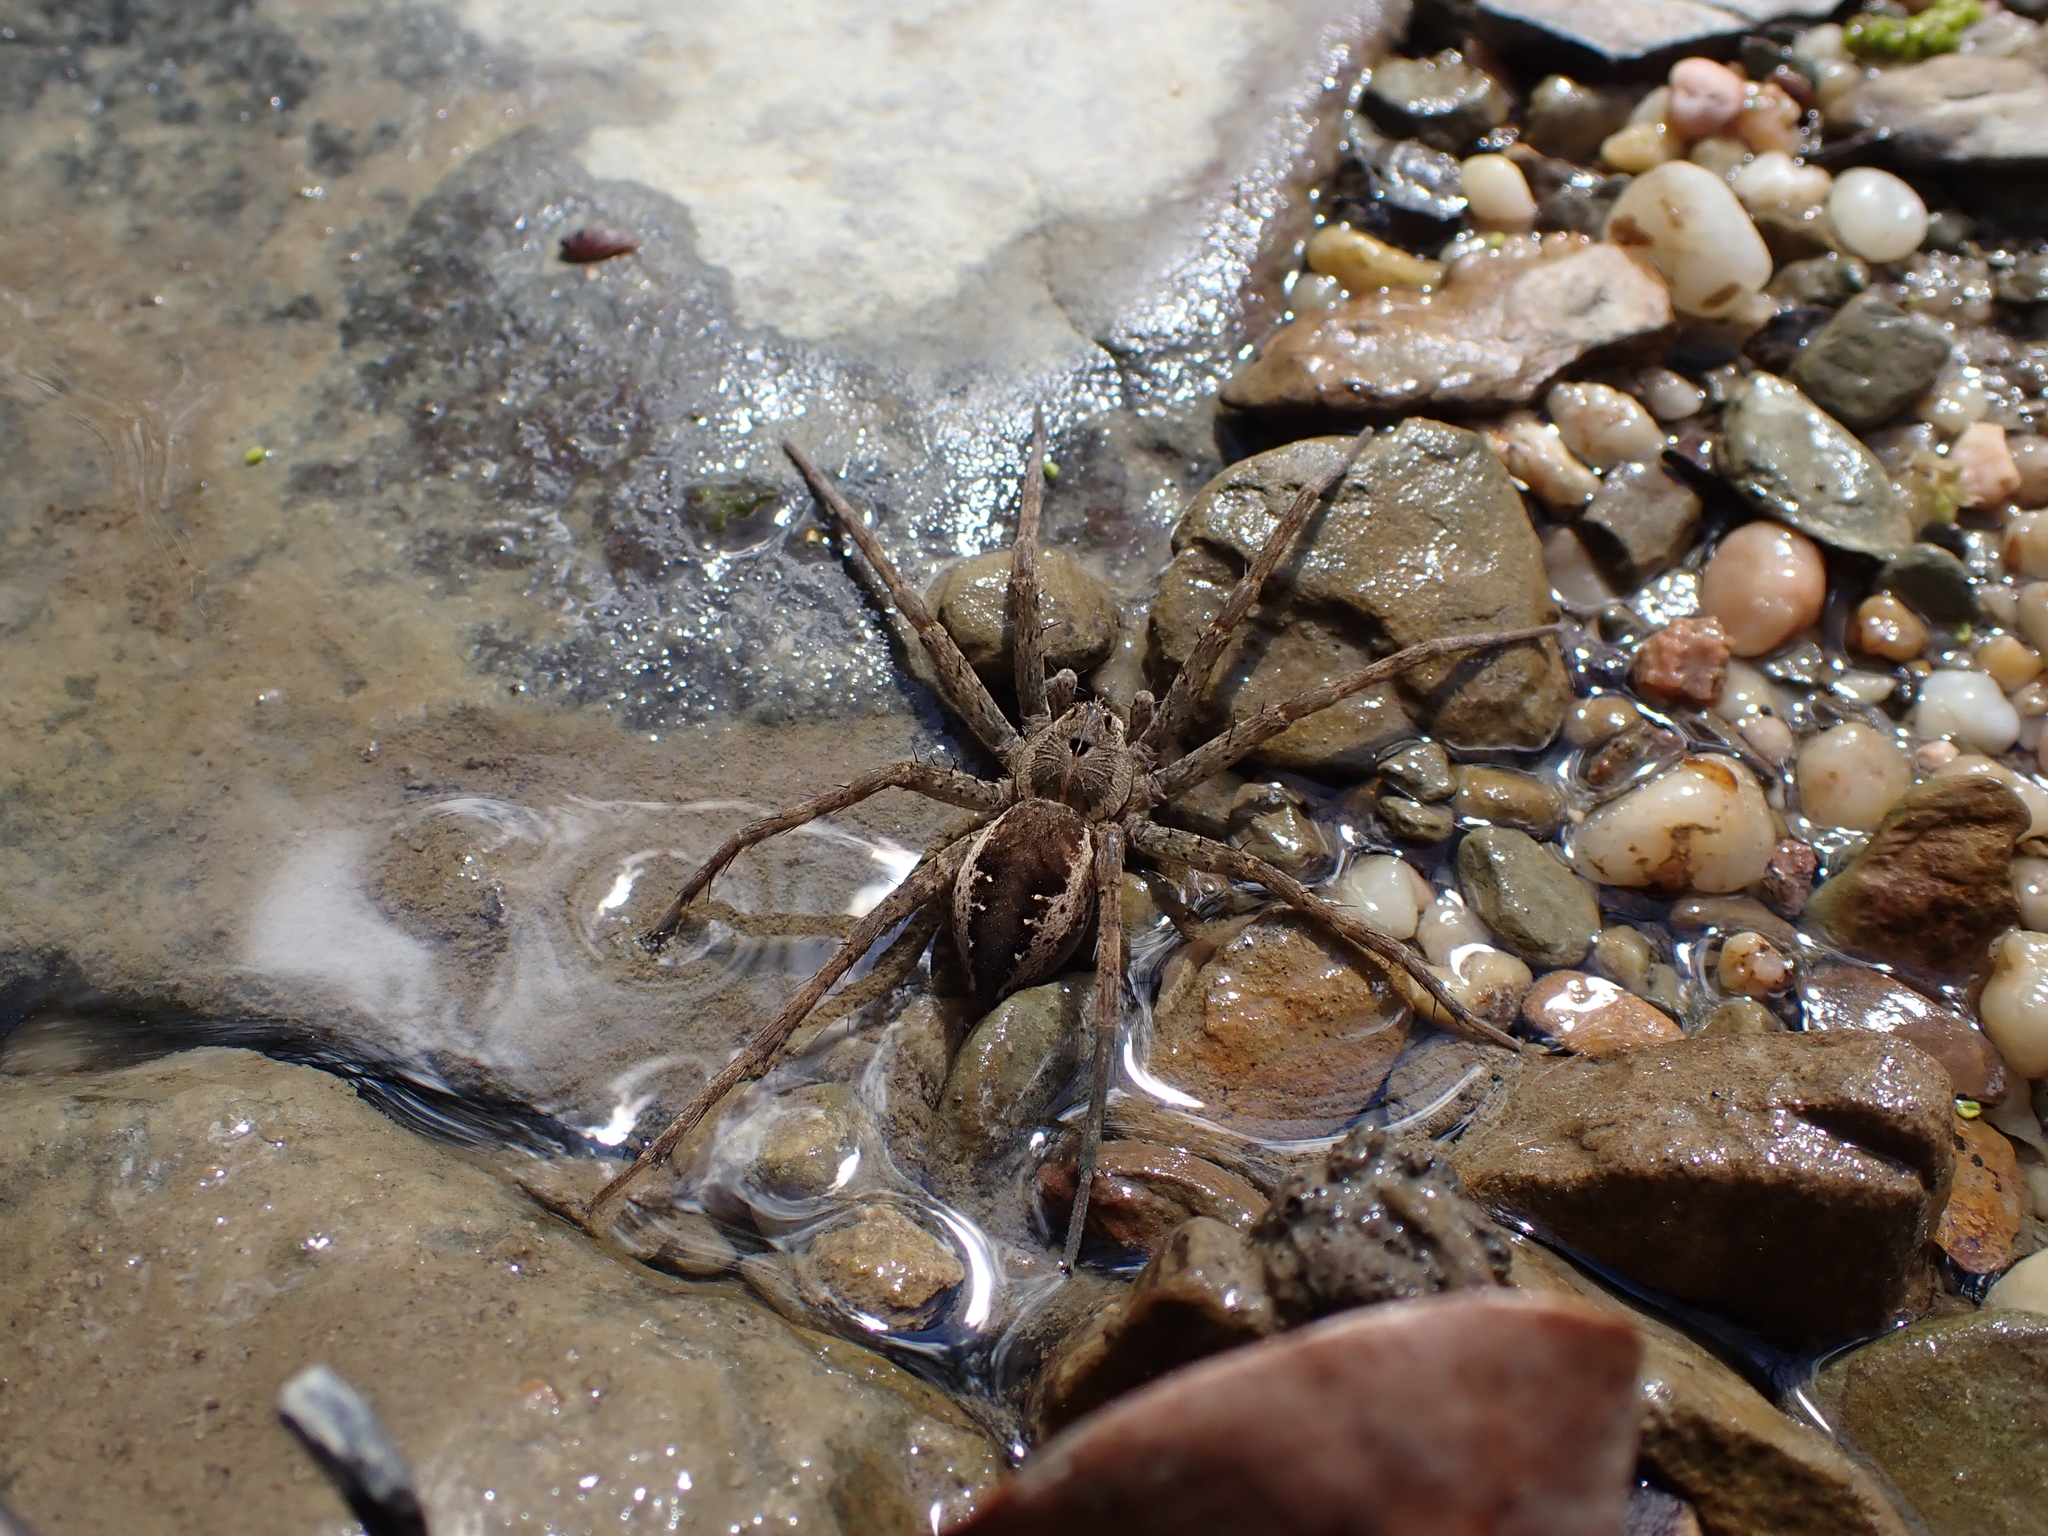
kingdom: Animalia
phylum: Arthropoda
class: Arachnida
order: Araneae
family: Pisauridae
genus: Dolomedes
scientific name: Dolomedes vittatus
